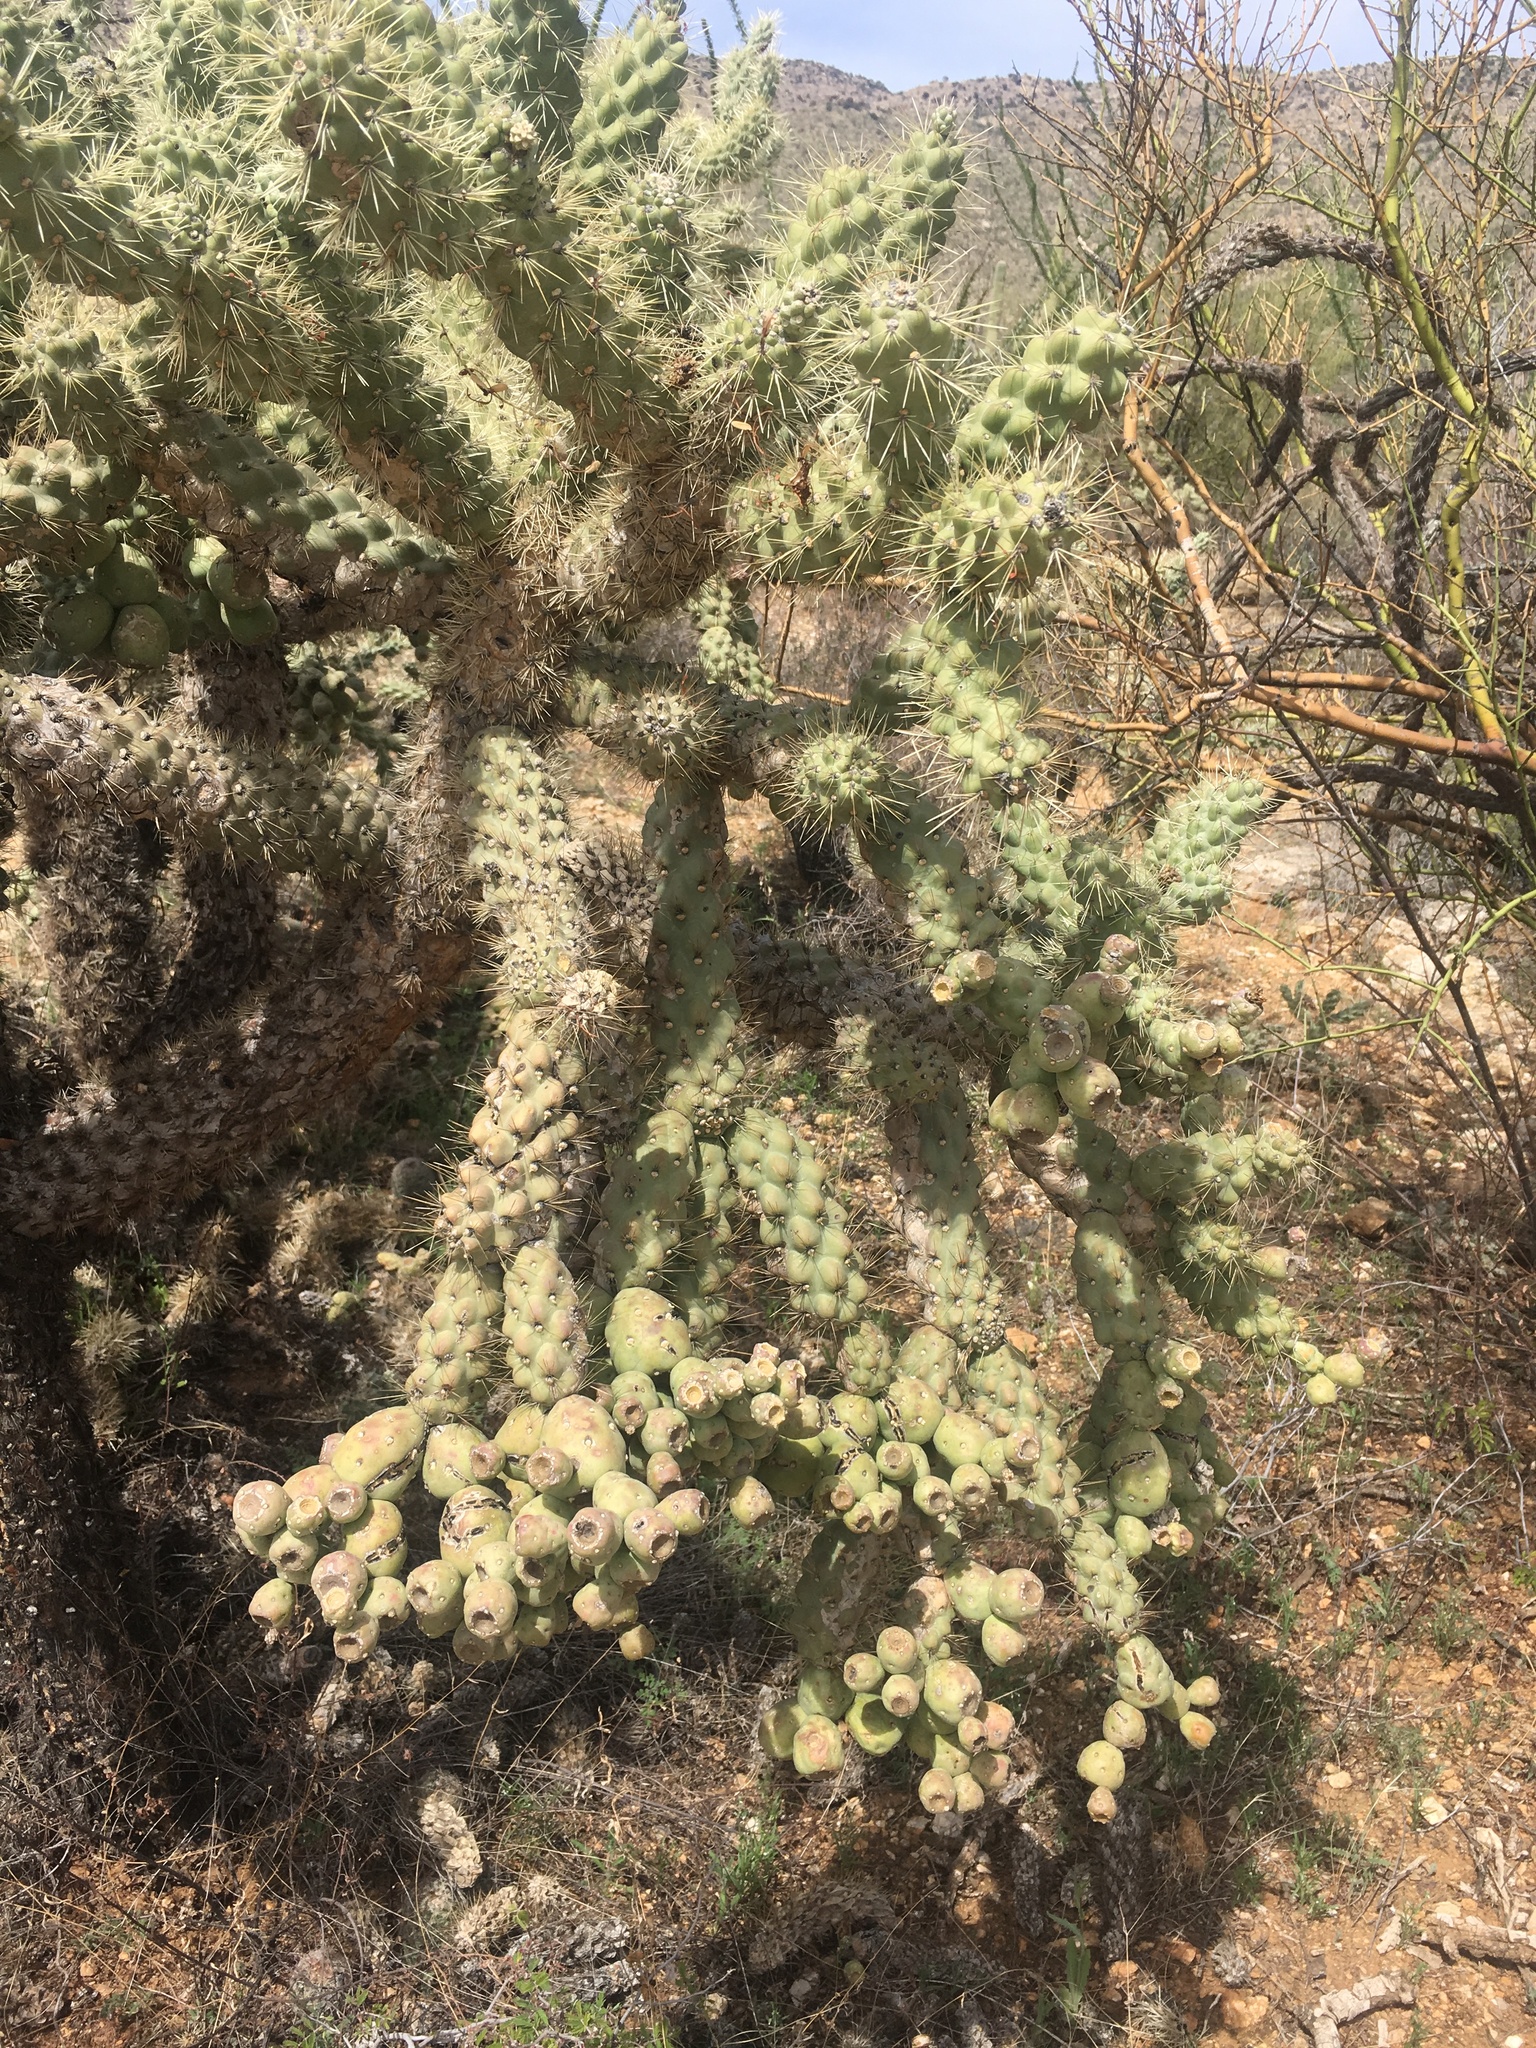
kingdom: Plantae
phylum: Tracheophyta
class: Magnoliopsida
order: Caryophyllales
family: Cactaceae
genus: Cylindropuntia
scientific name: Cylindropuntia fulgida
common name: Jumping cholla
